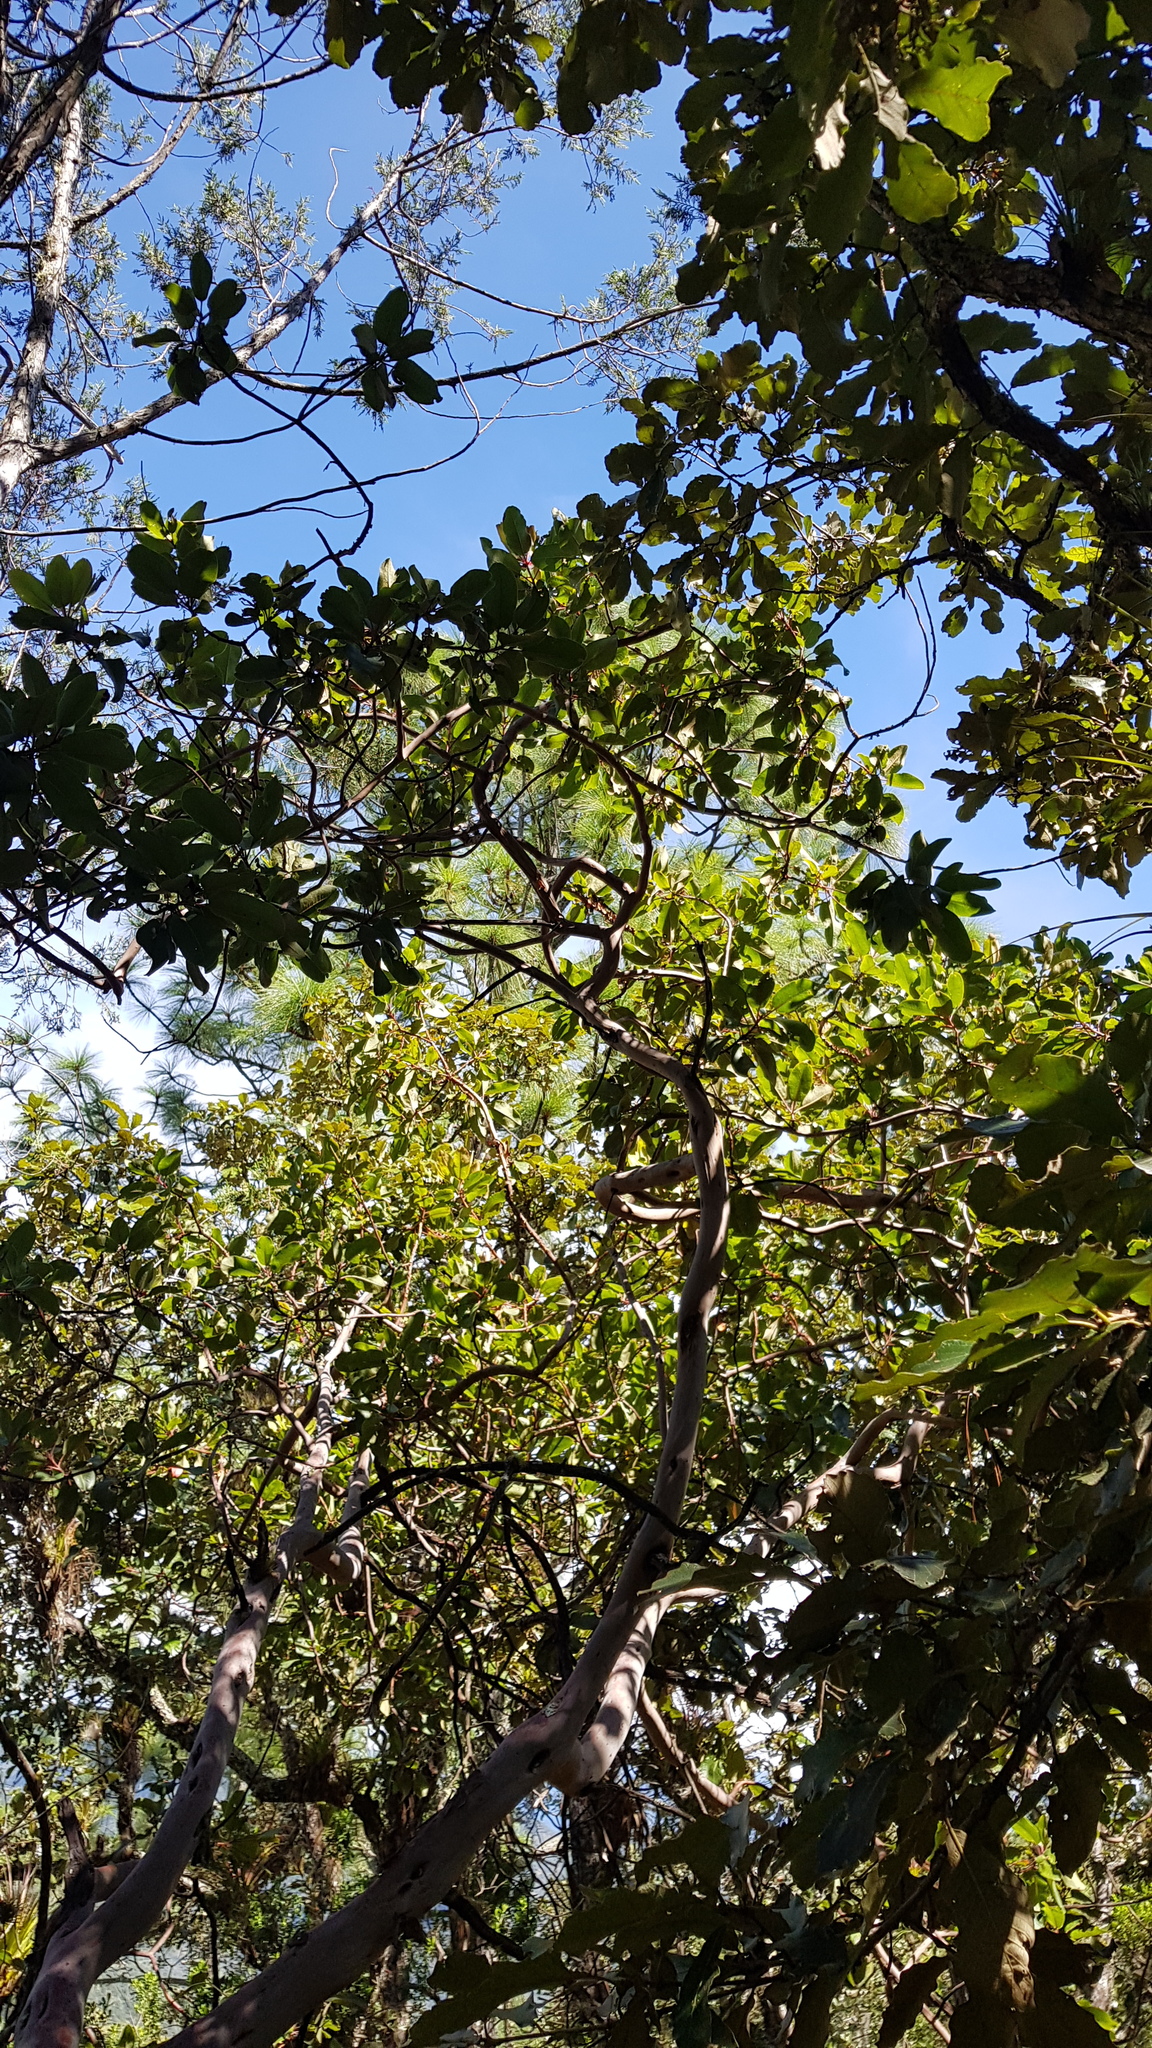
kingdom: Plantae
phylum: Tracheophyta
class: Magnoliopsida
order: Ericales
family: Ericaceae
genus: Arbutus
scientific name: Arbutus xalapensis
